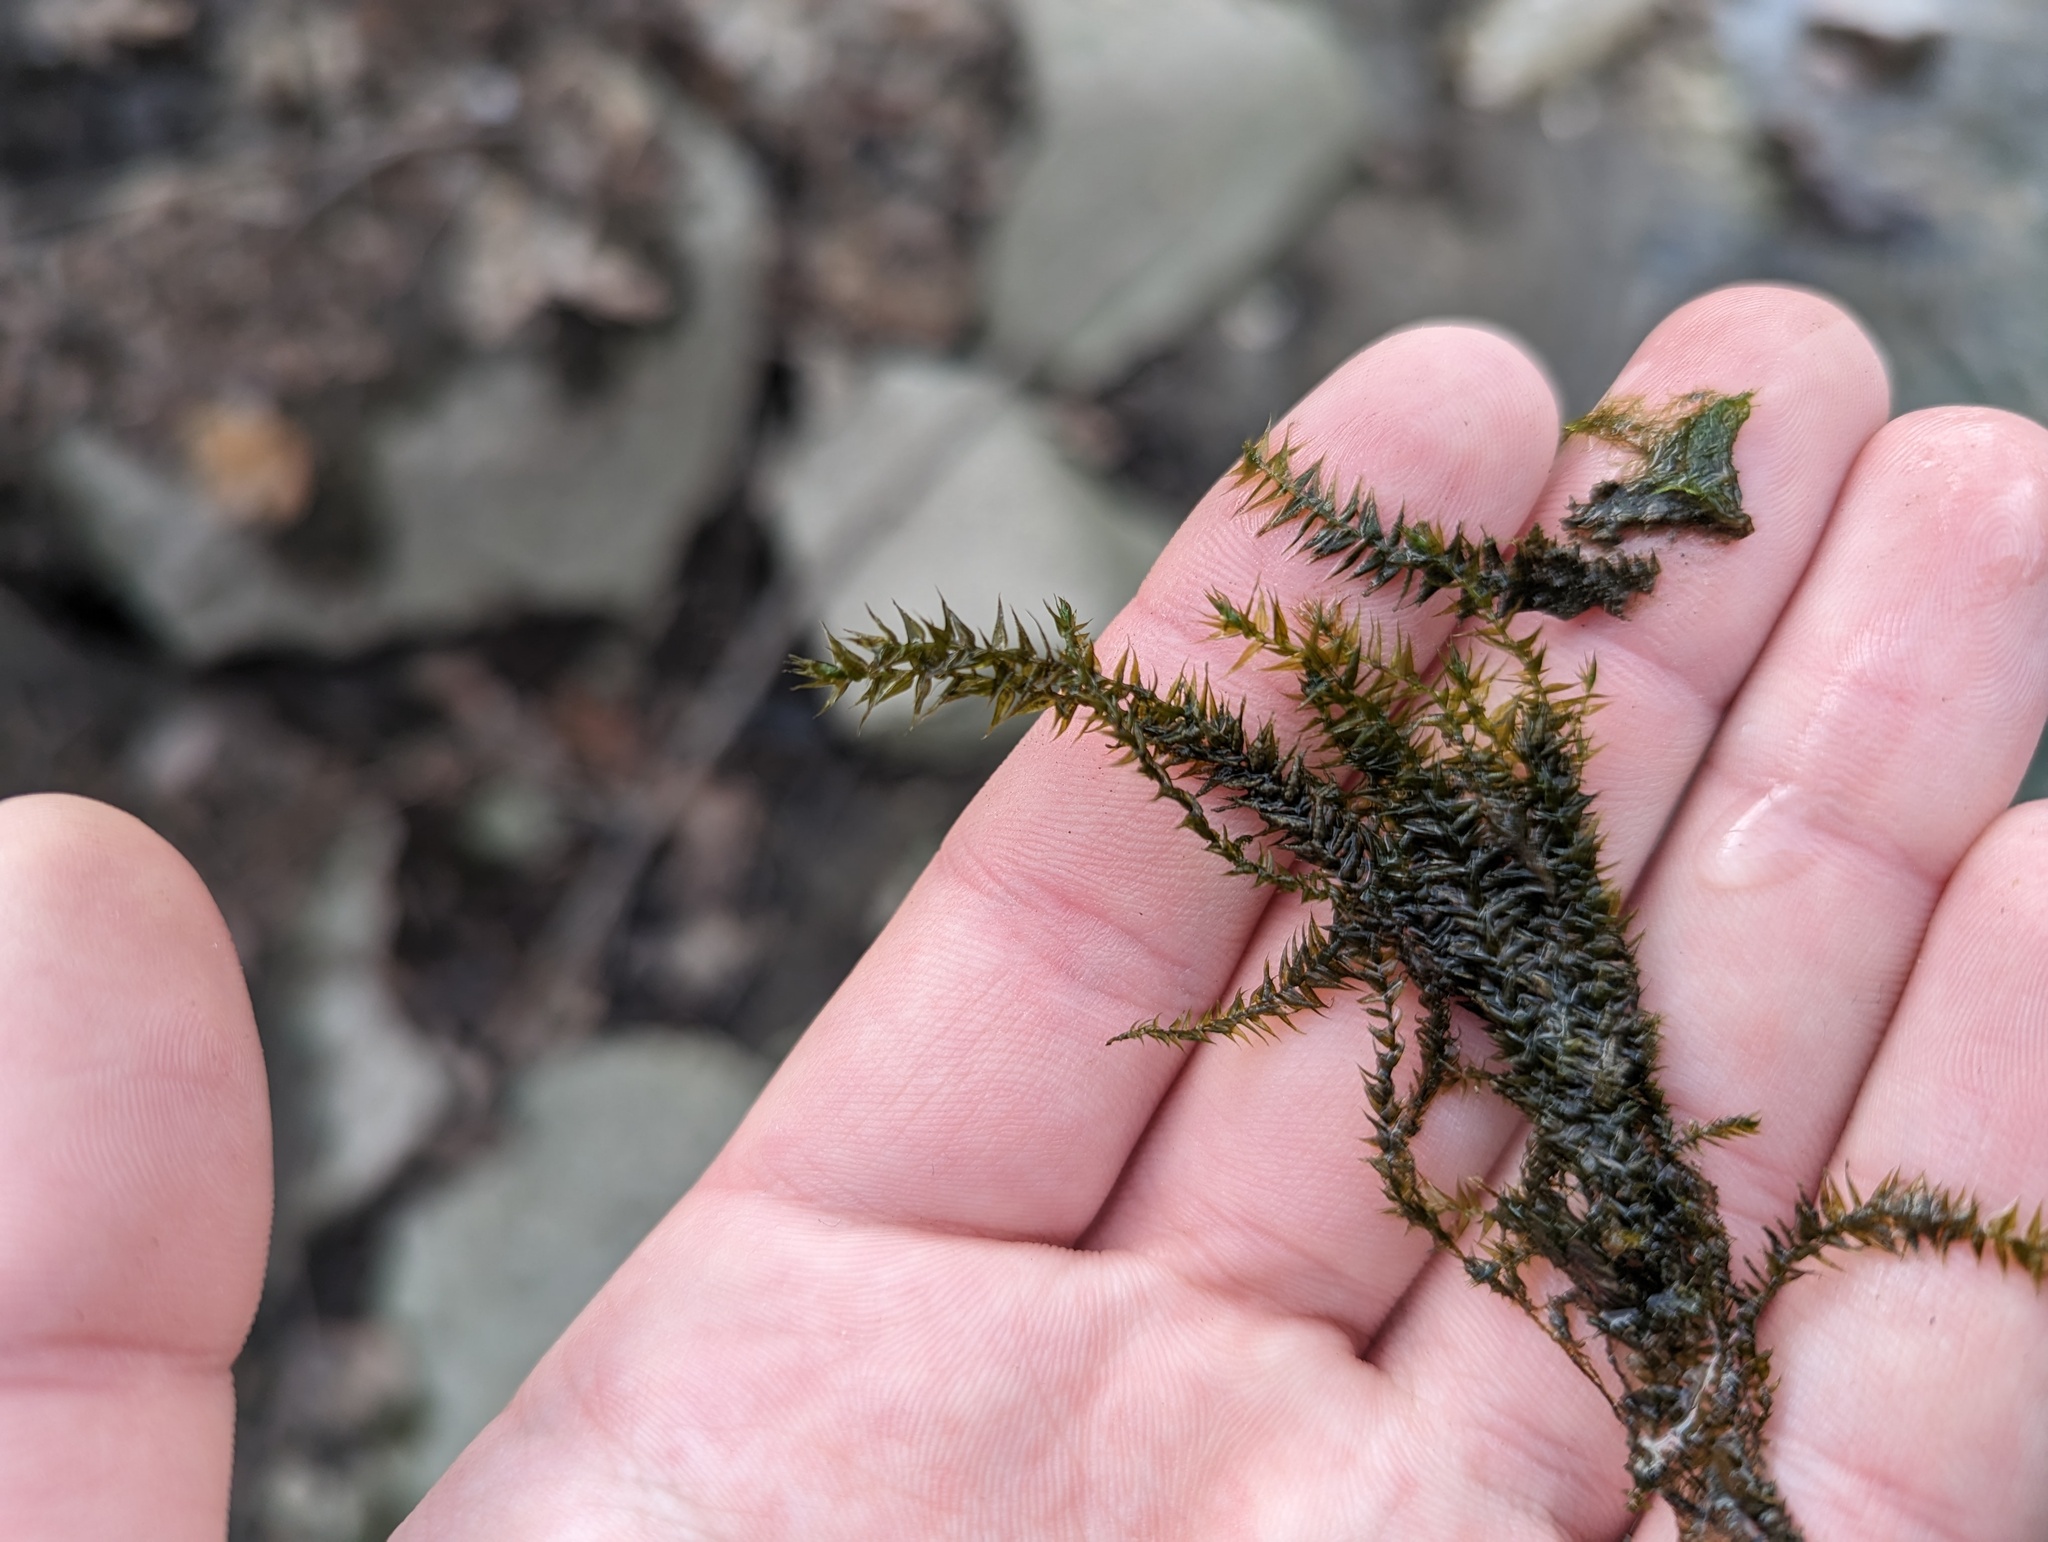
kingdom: Plantae
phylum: Bryophyta
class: Bryopsida
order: Hypnales
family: Amblystegiaceae
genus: Leptodictyum
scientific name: Leptodictyum riparium
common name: Riparian feather moss
